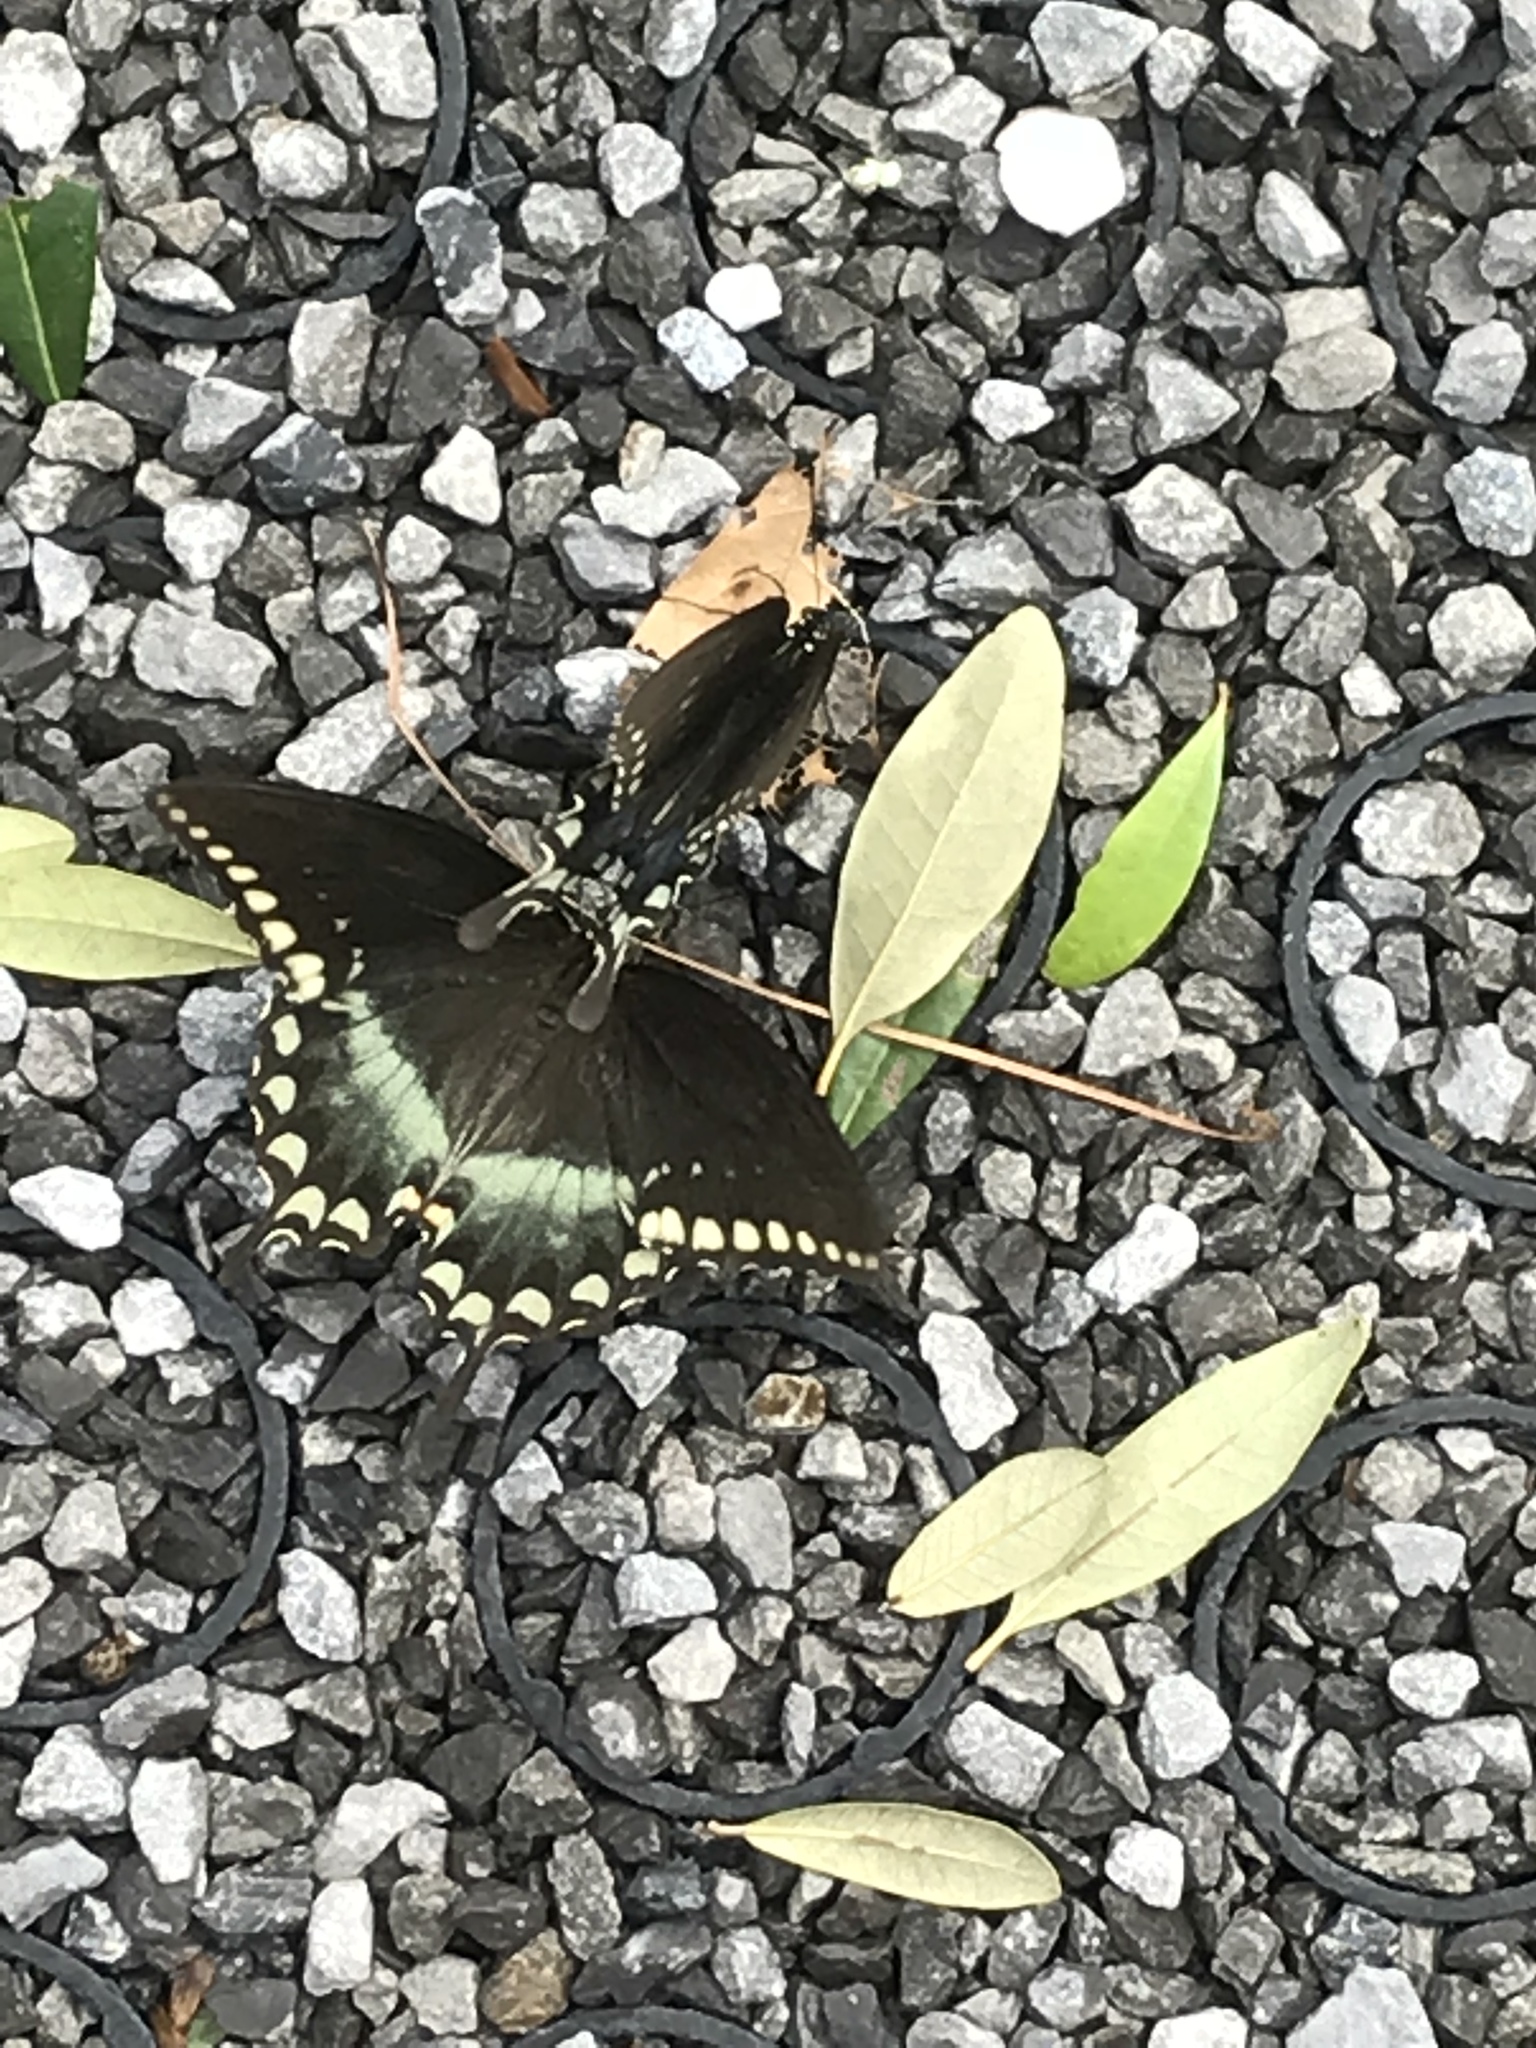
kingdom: Animalia
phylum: Arthropoda
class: Insecta
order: Lepidoptera
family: Papilionidae
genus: Papilio
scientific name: Papilio troilus
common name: Spicebush swallowtail
